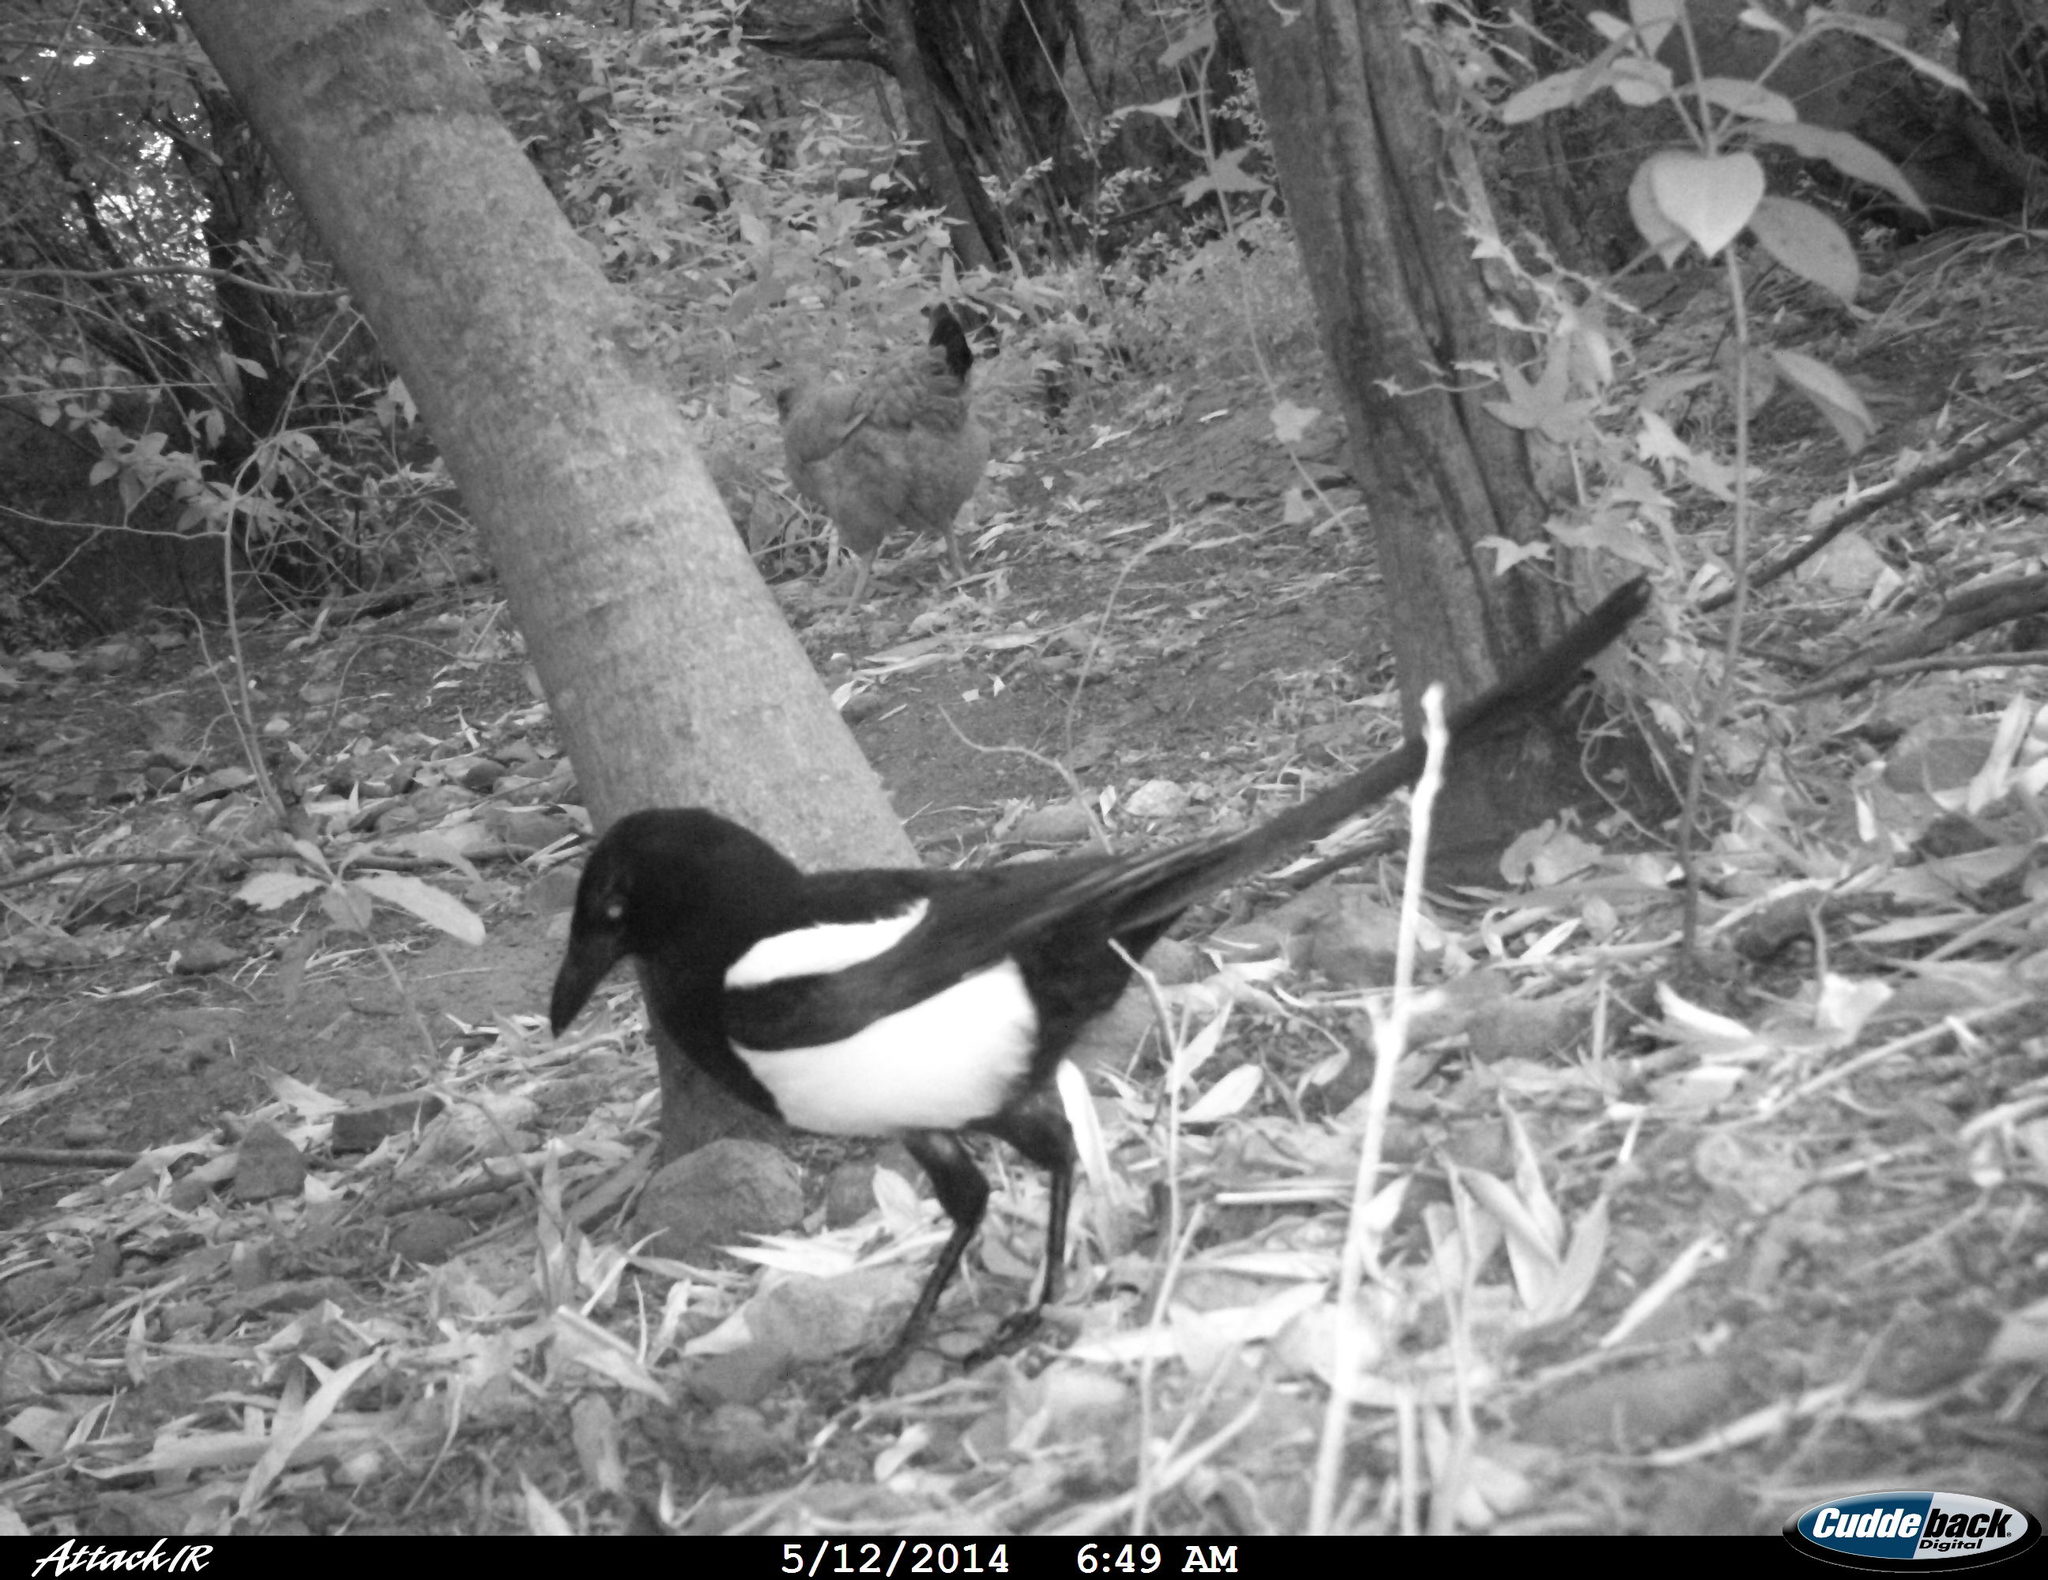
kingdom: Animalia
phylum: Chordata
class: Aves
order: Passeriformes
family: Corvidae
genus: Pica
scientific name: Pica pica
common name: Eurasian magpie
